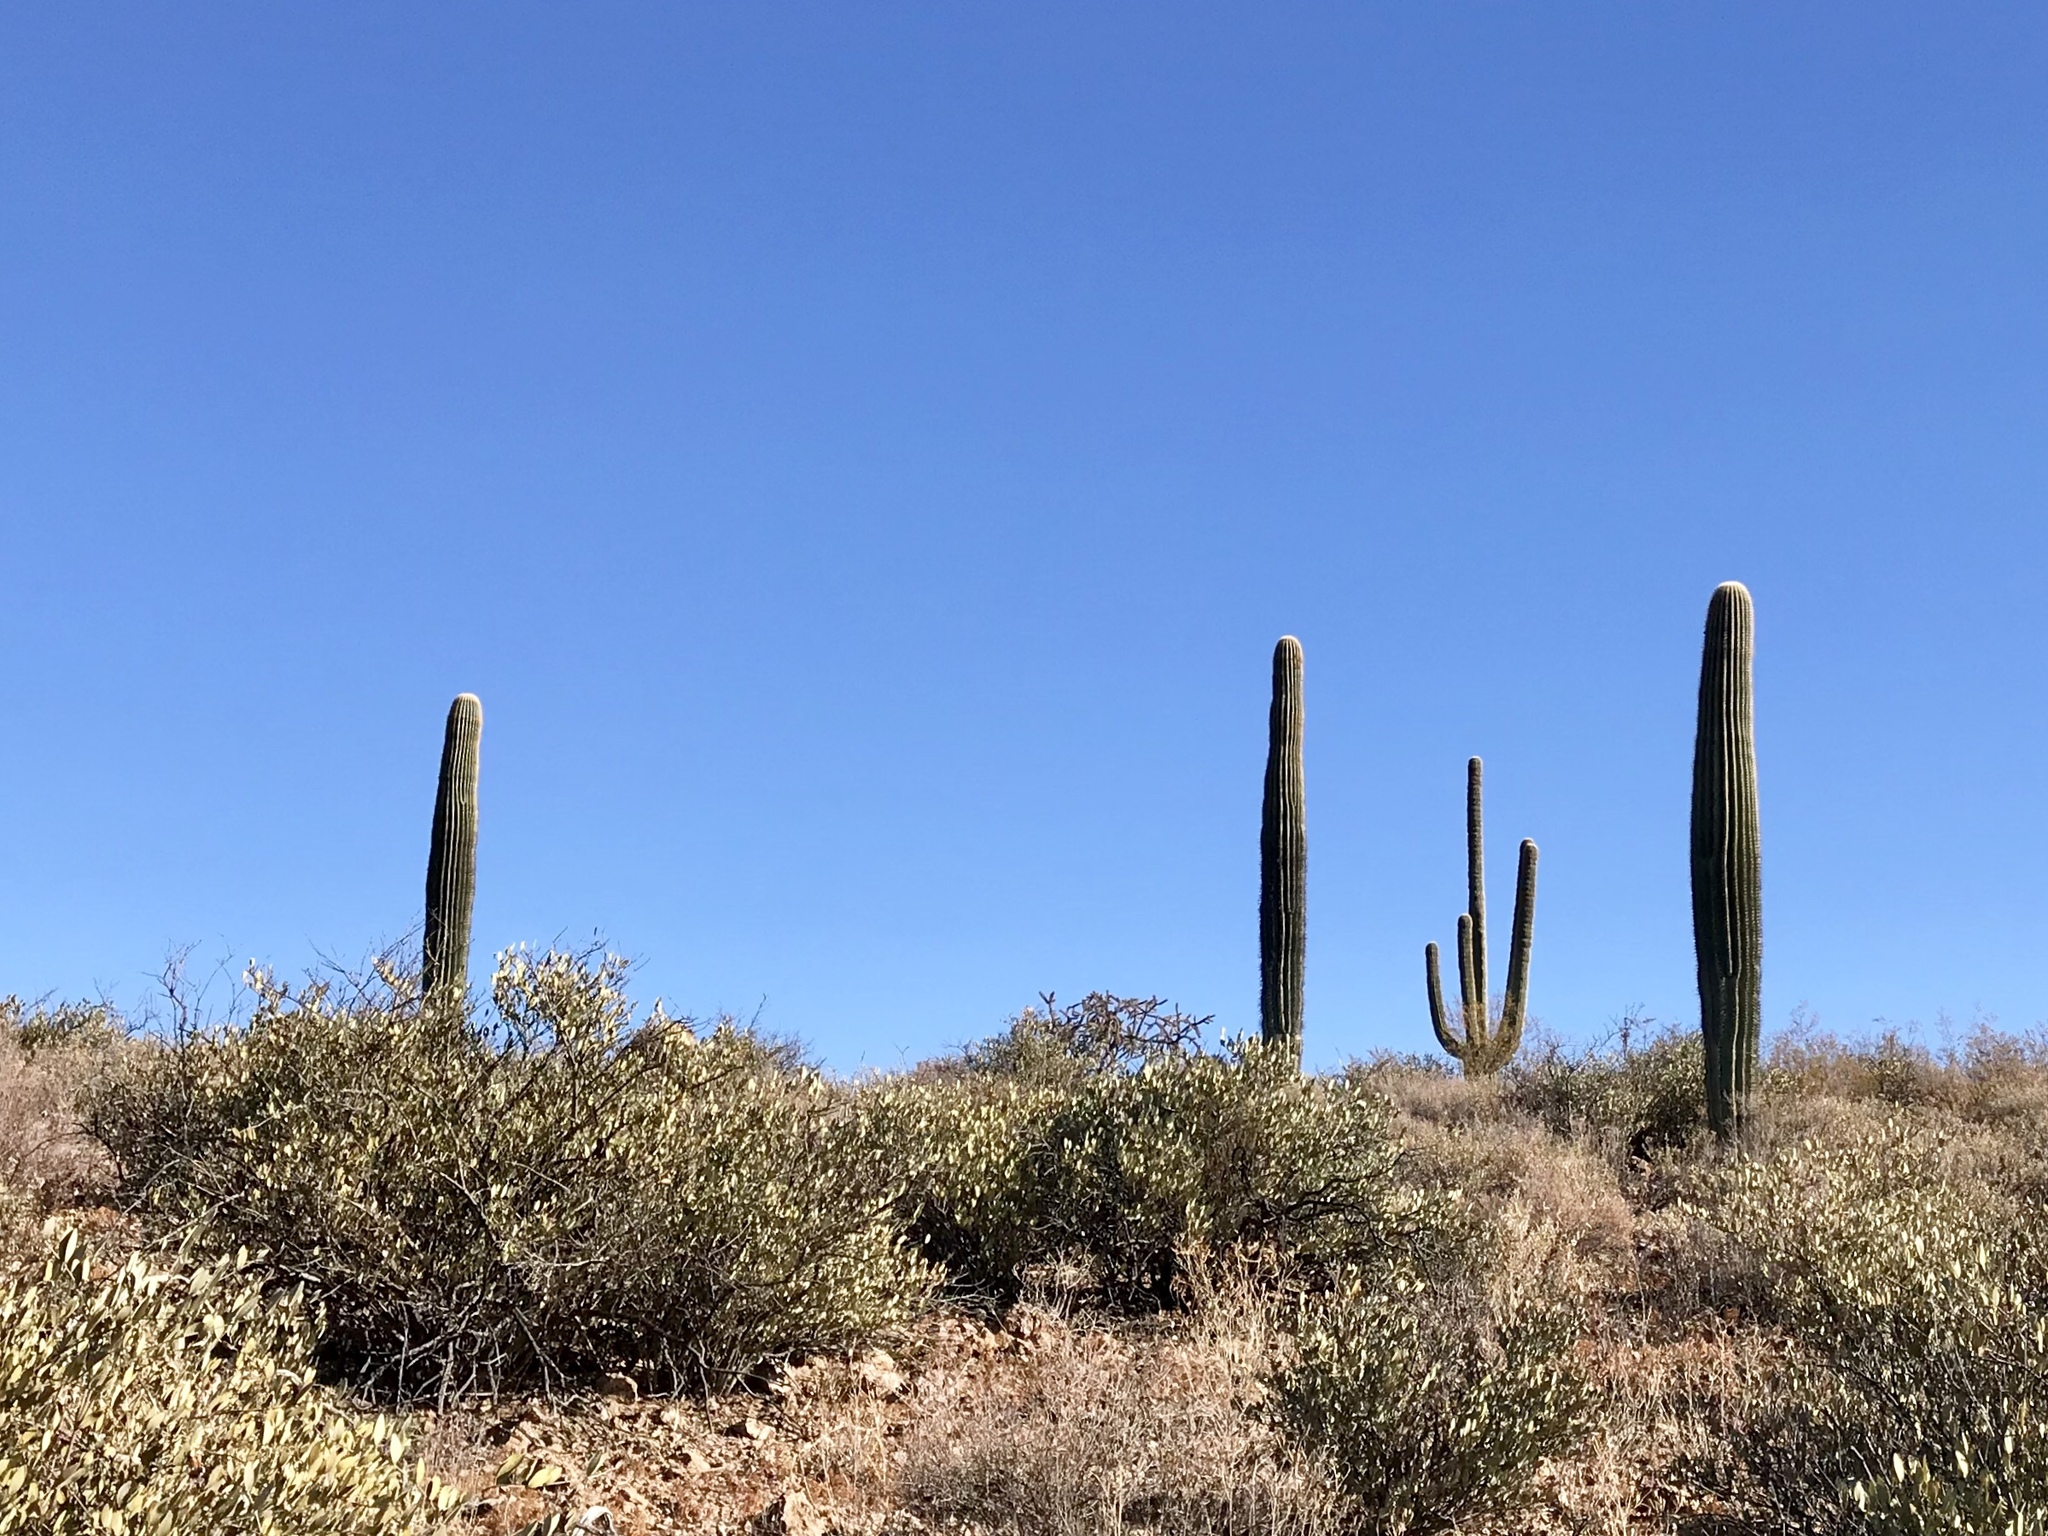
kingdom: Plantae
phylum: Tracheophyta
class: Magnoliopsida
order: Caryophyllales
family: Cactaceae
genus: Carnegiea
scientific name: Carnegiea gigantea
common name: Saguaro
